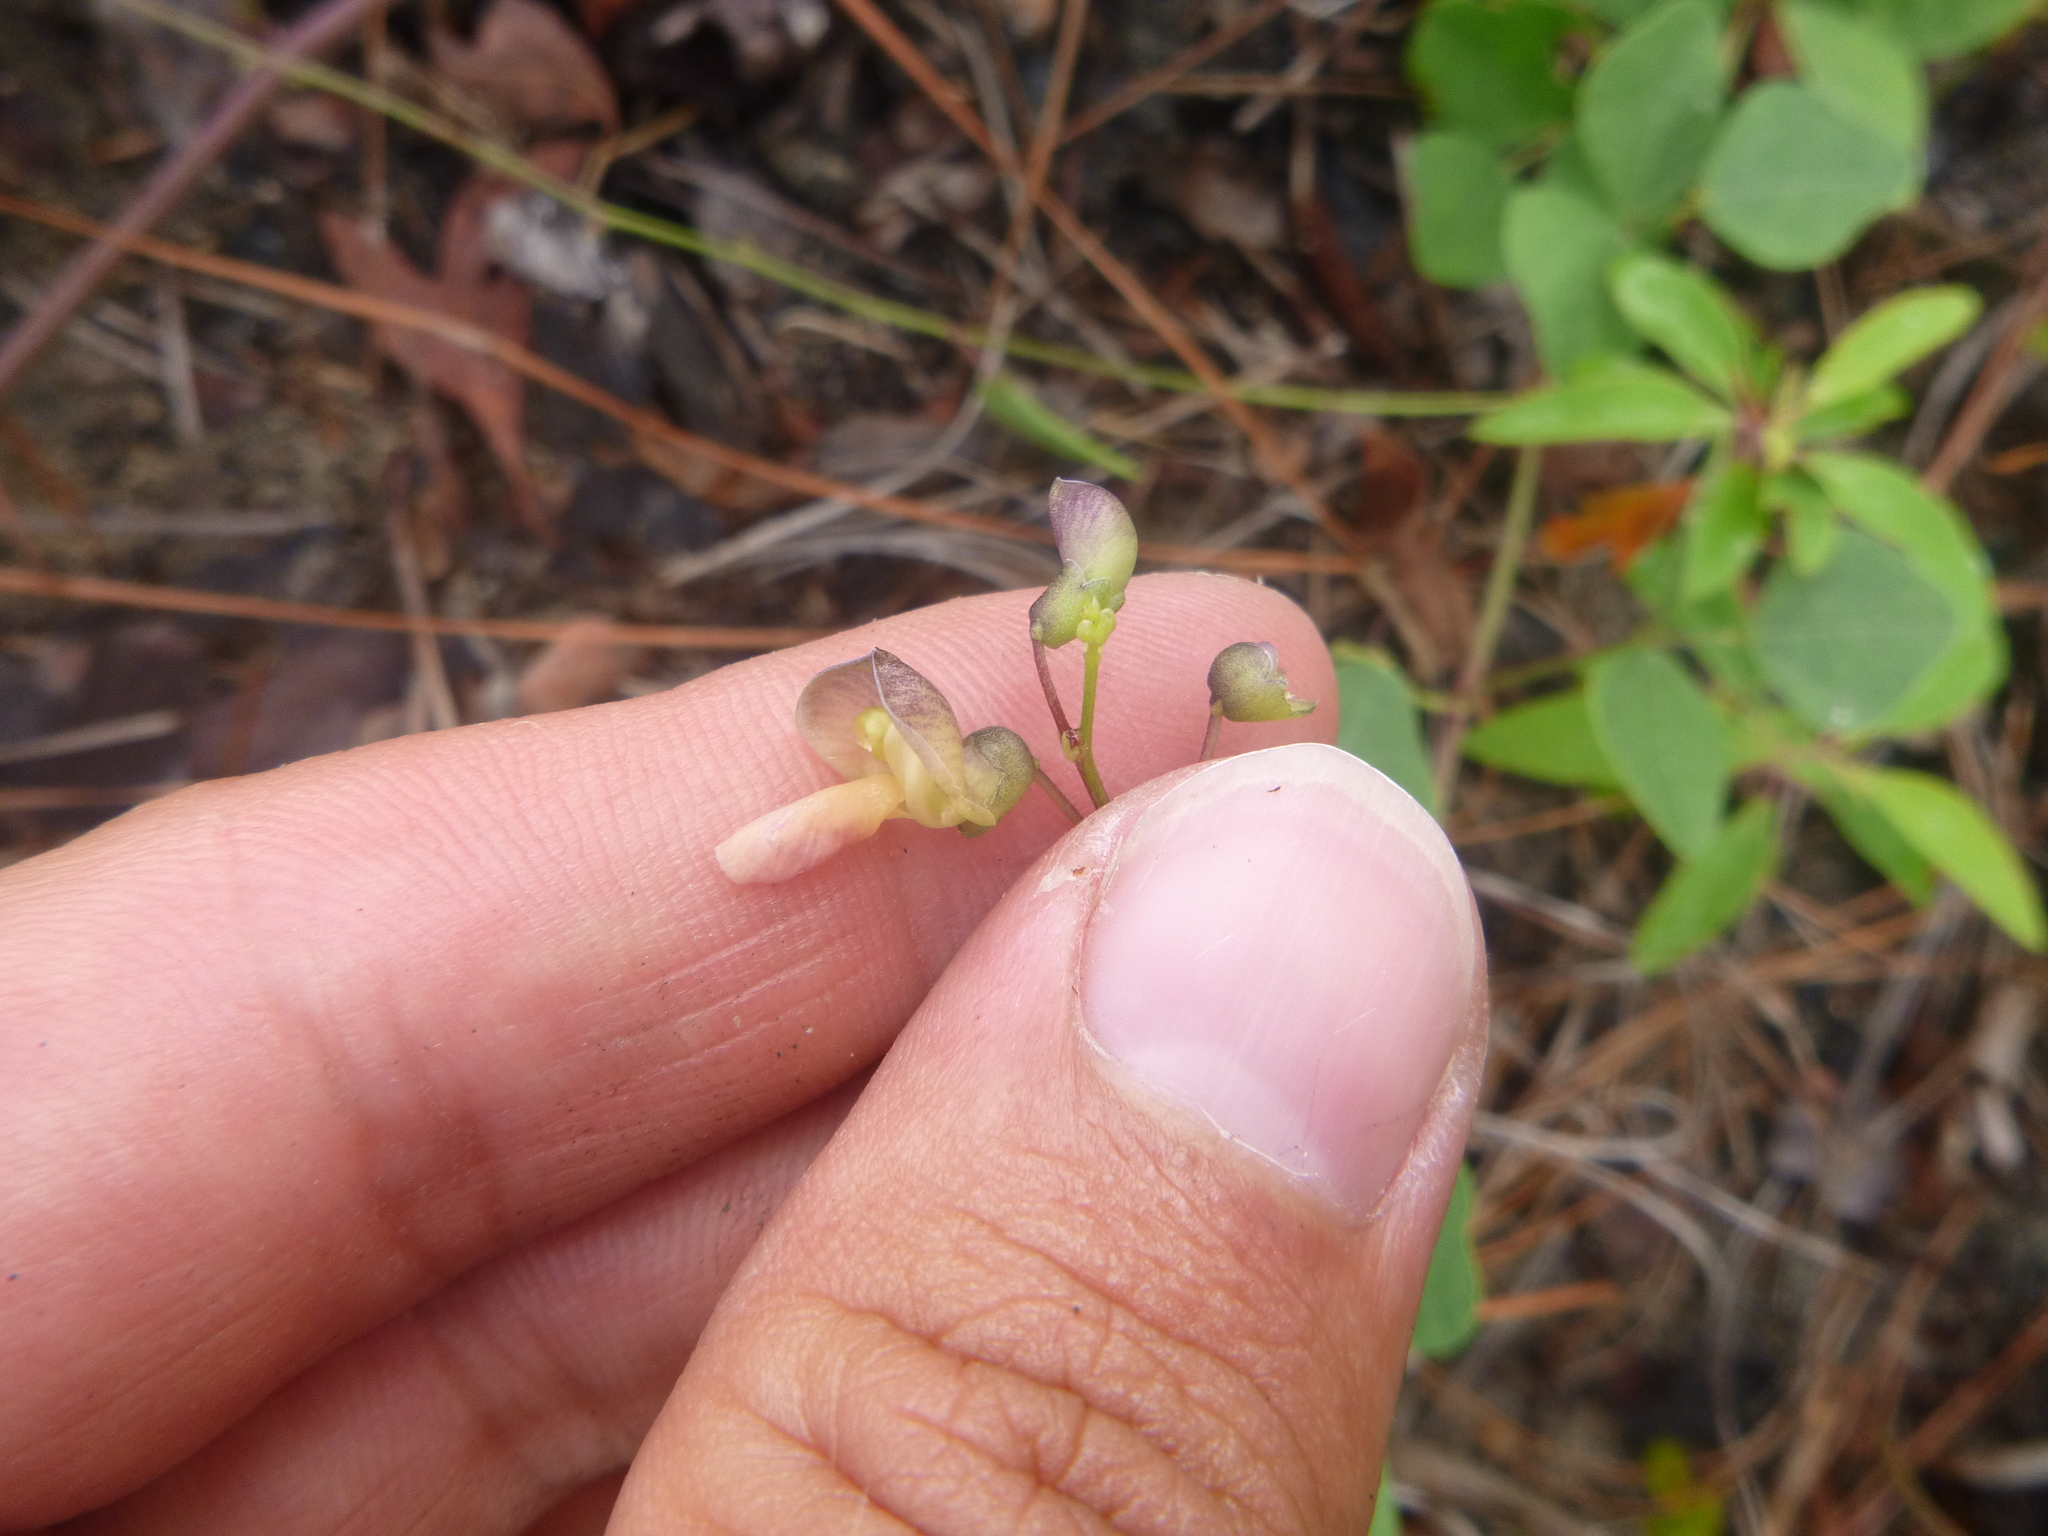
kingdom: Plantae
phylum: Tracheophyta
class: Magnoliopsida
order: Fabales
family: Fabaceae
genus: Phaseolus
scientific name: Phaseolus sinuatus
